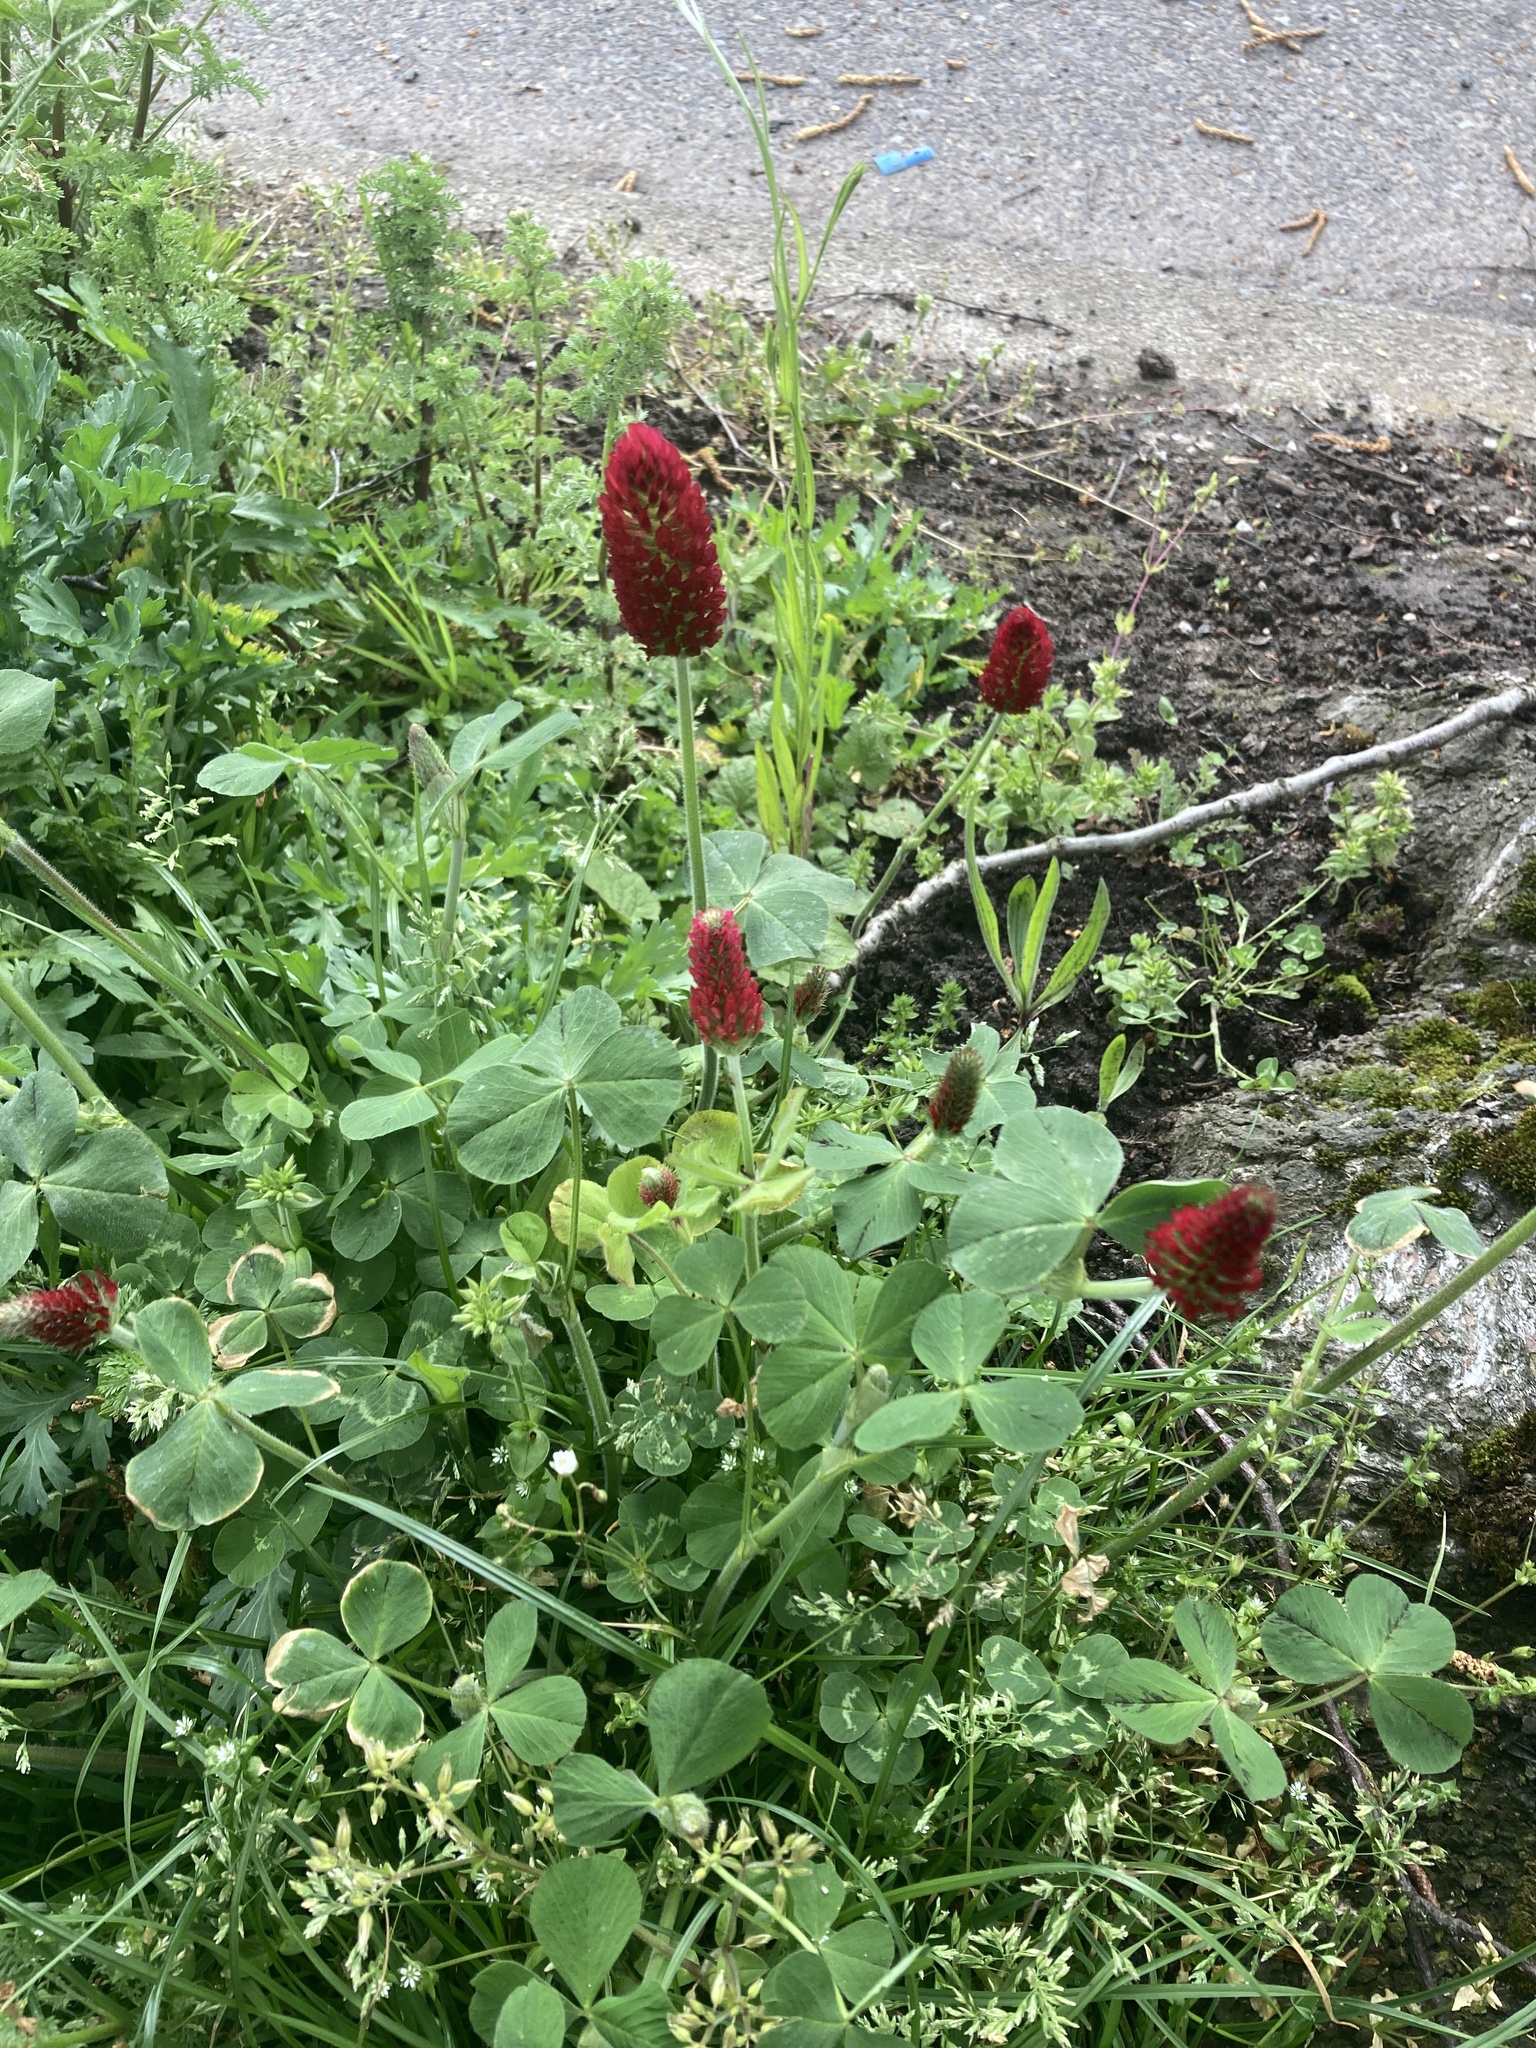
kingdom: Plantae
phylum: Tracheophyta
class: Magnoliopsida
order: Fabales
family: Fabaceae
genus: Trifolium
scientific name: Trifolium incarnatum
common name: Crimson clover
